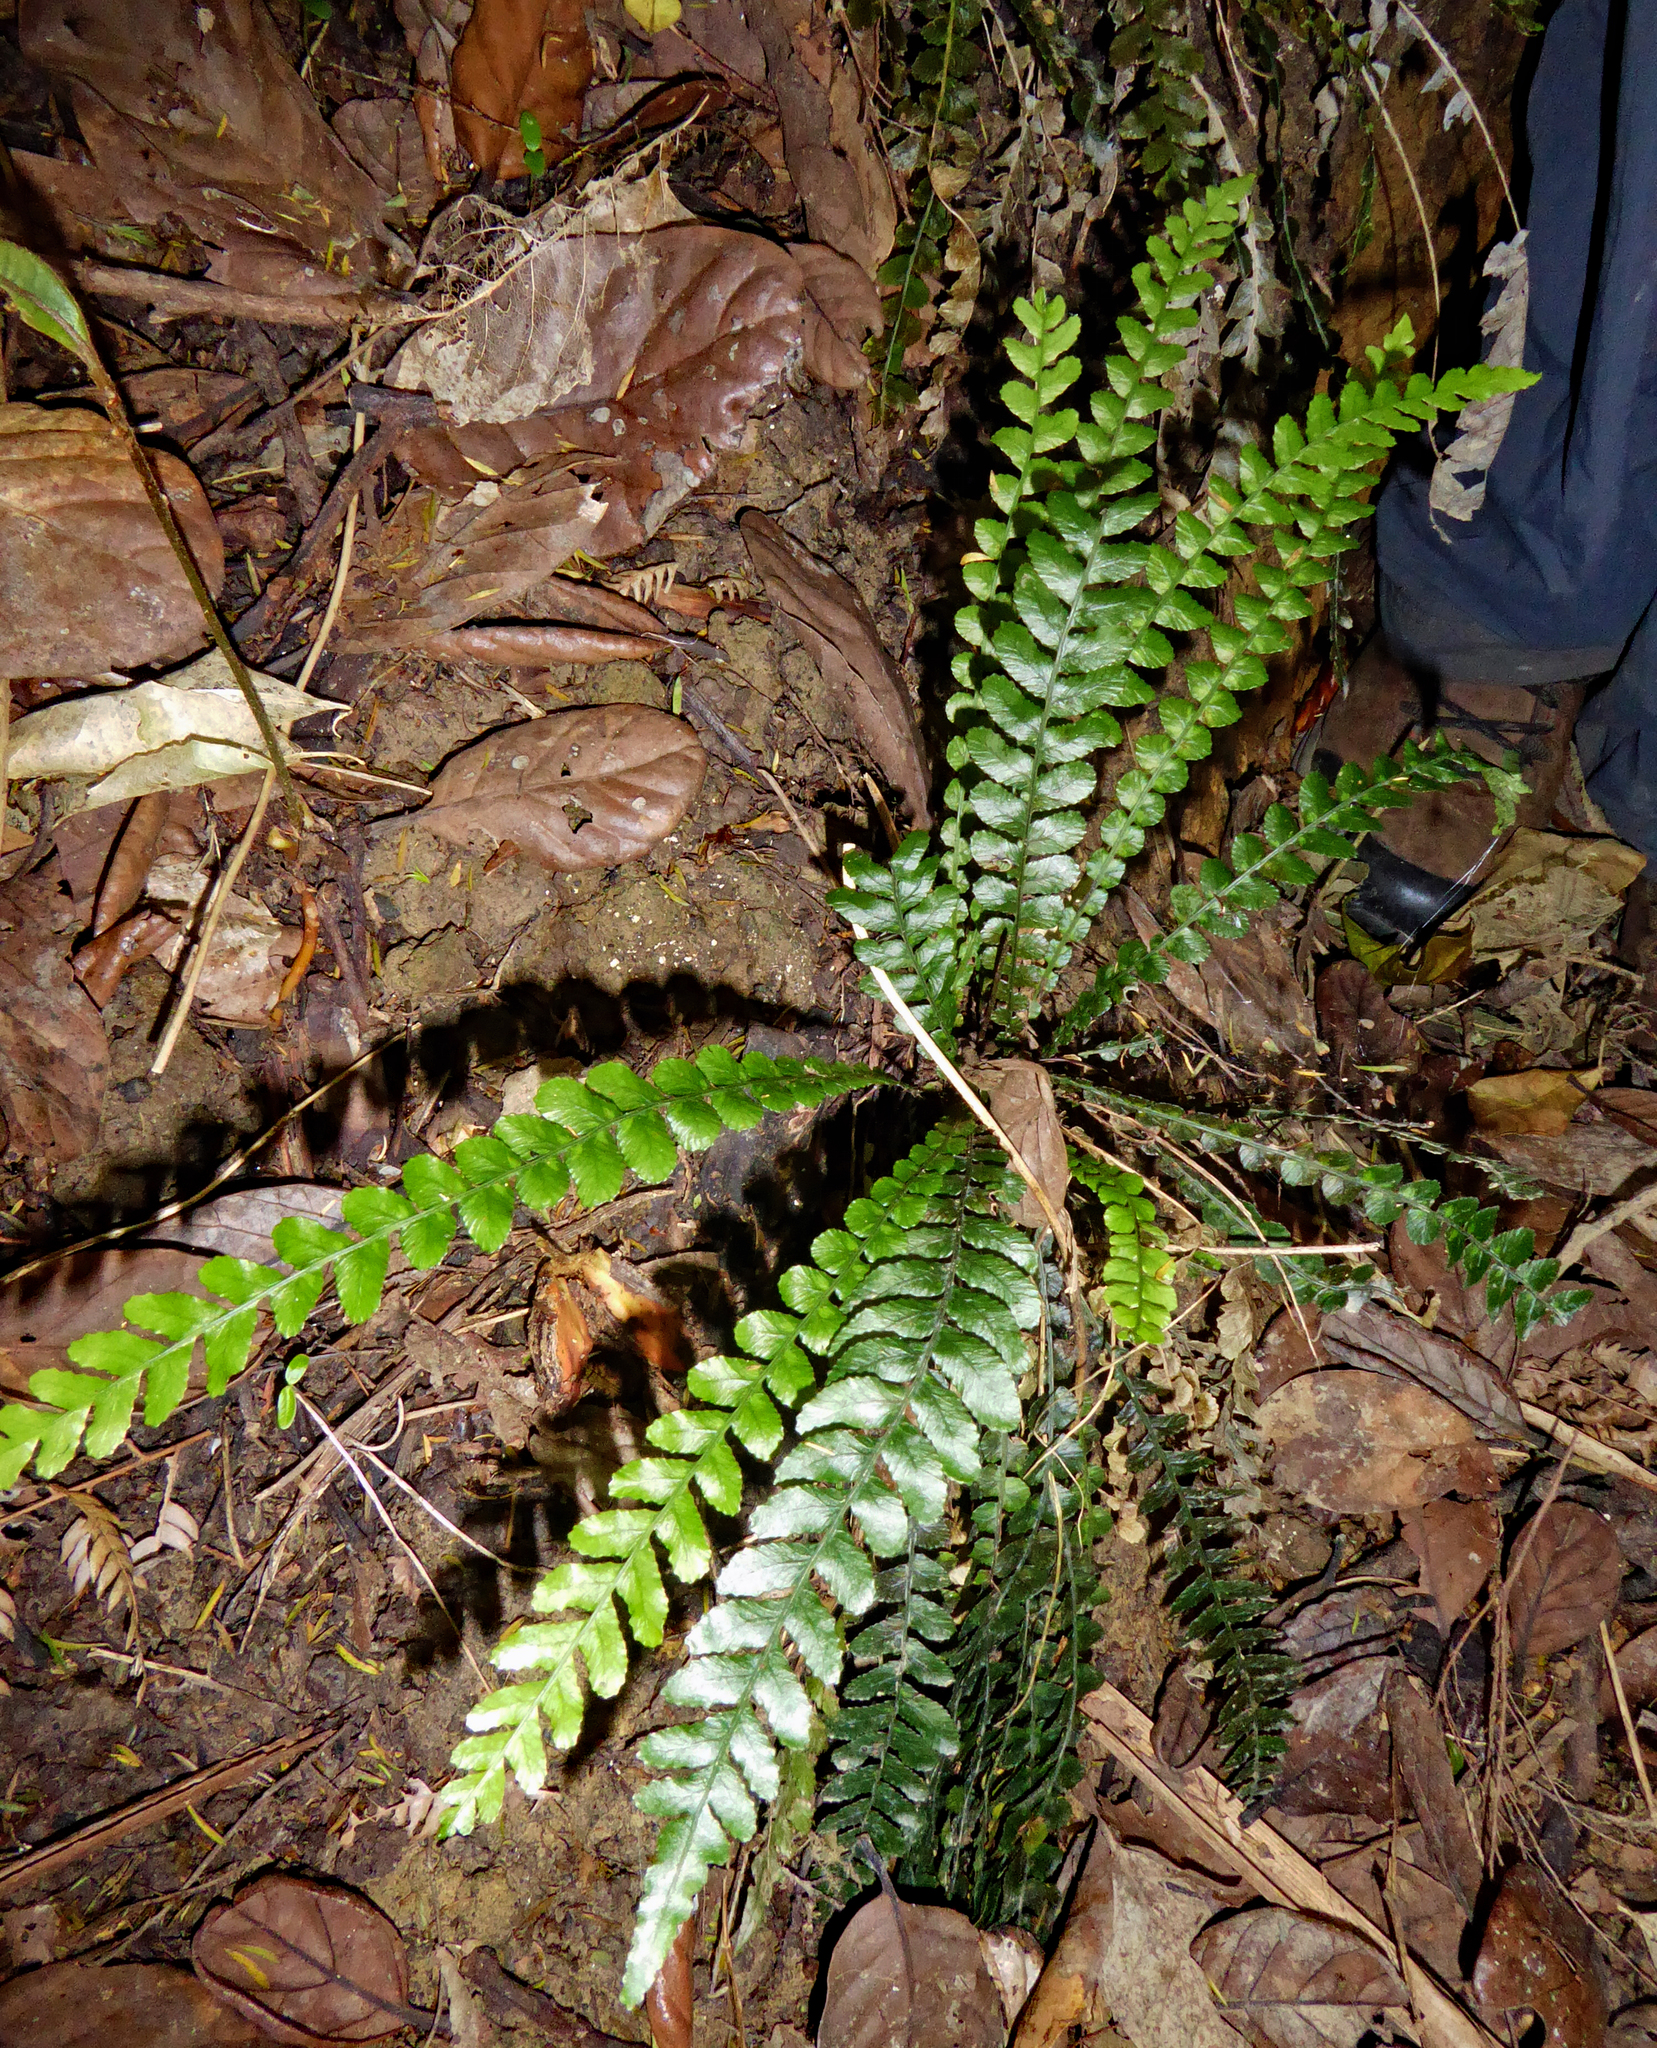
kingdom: Plantae
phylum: Tracheophyta
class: Polypodiopsida
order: Polypodiales
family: Blechnaceae
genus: Austroblechnum
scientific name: Austroblechnum membranaceum
